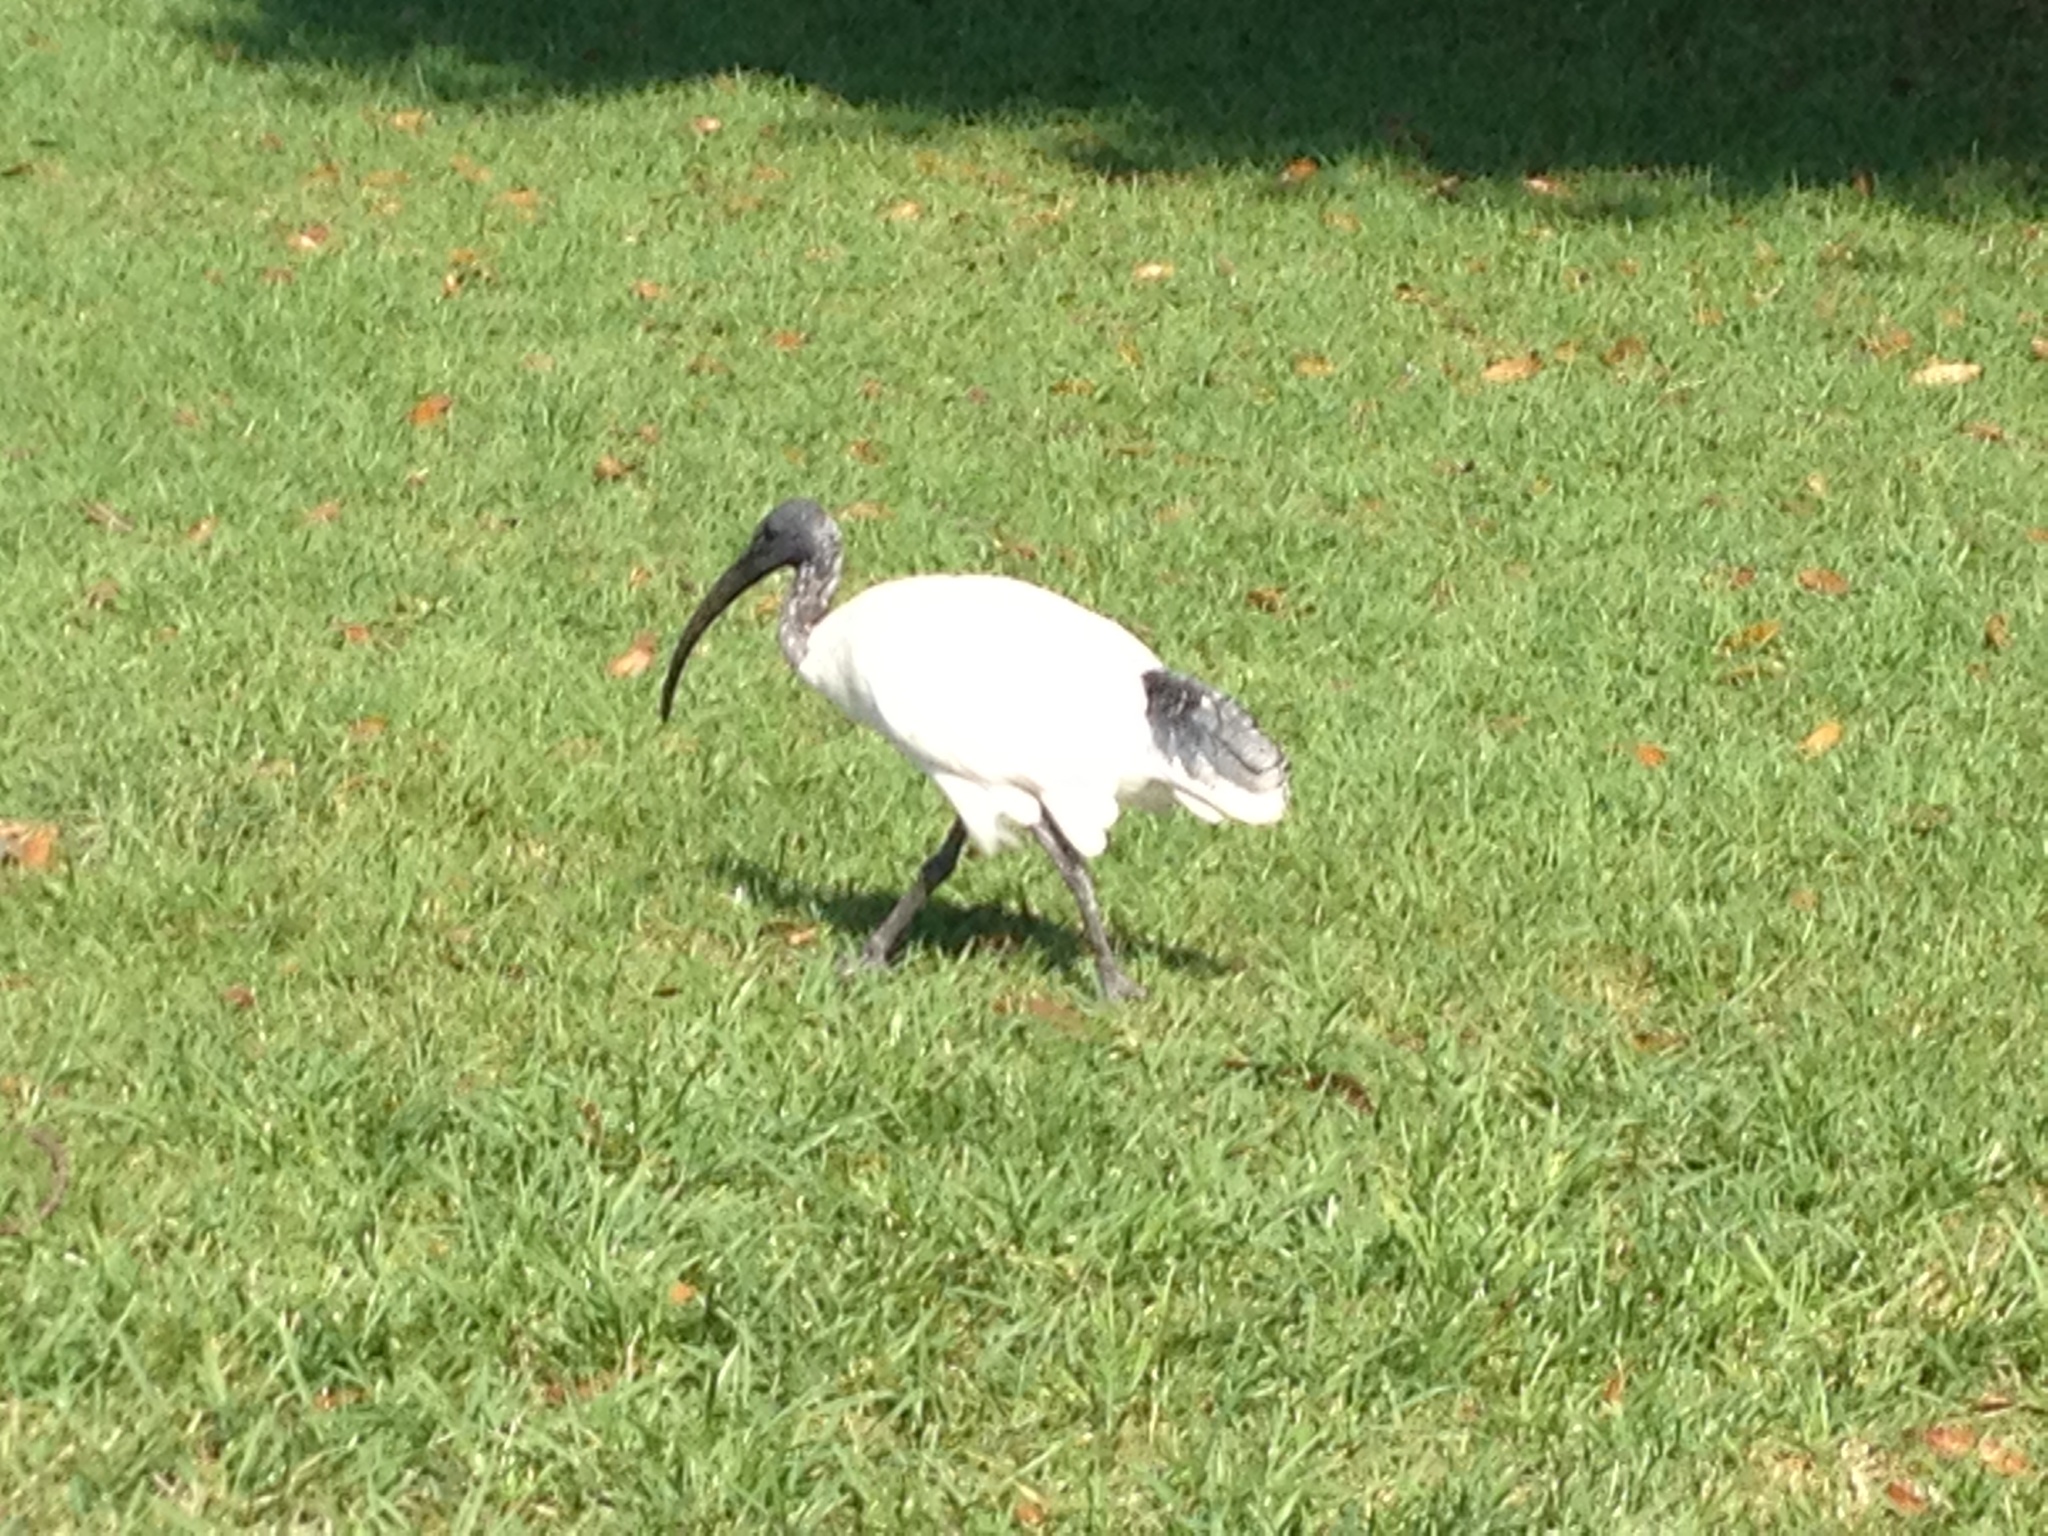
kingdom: Animalia
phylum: Chordata
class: Aves
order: Pelecaniformes
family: Threskiornithidae
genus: Threskiornis
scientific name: Threskiornis molucca
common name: Australian white ibis
